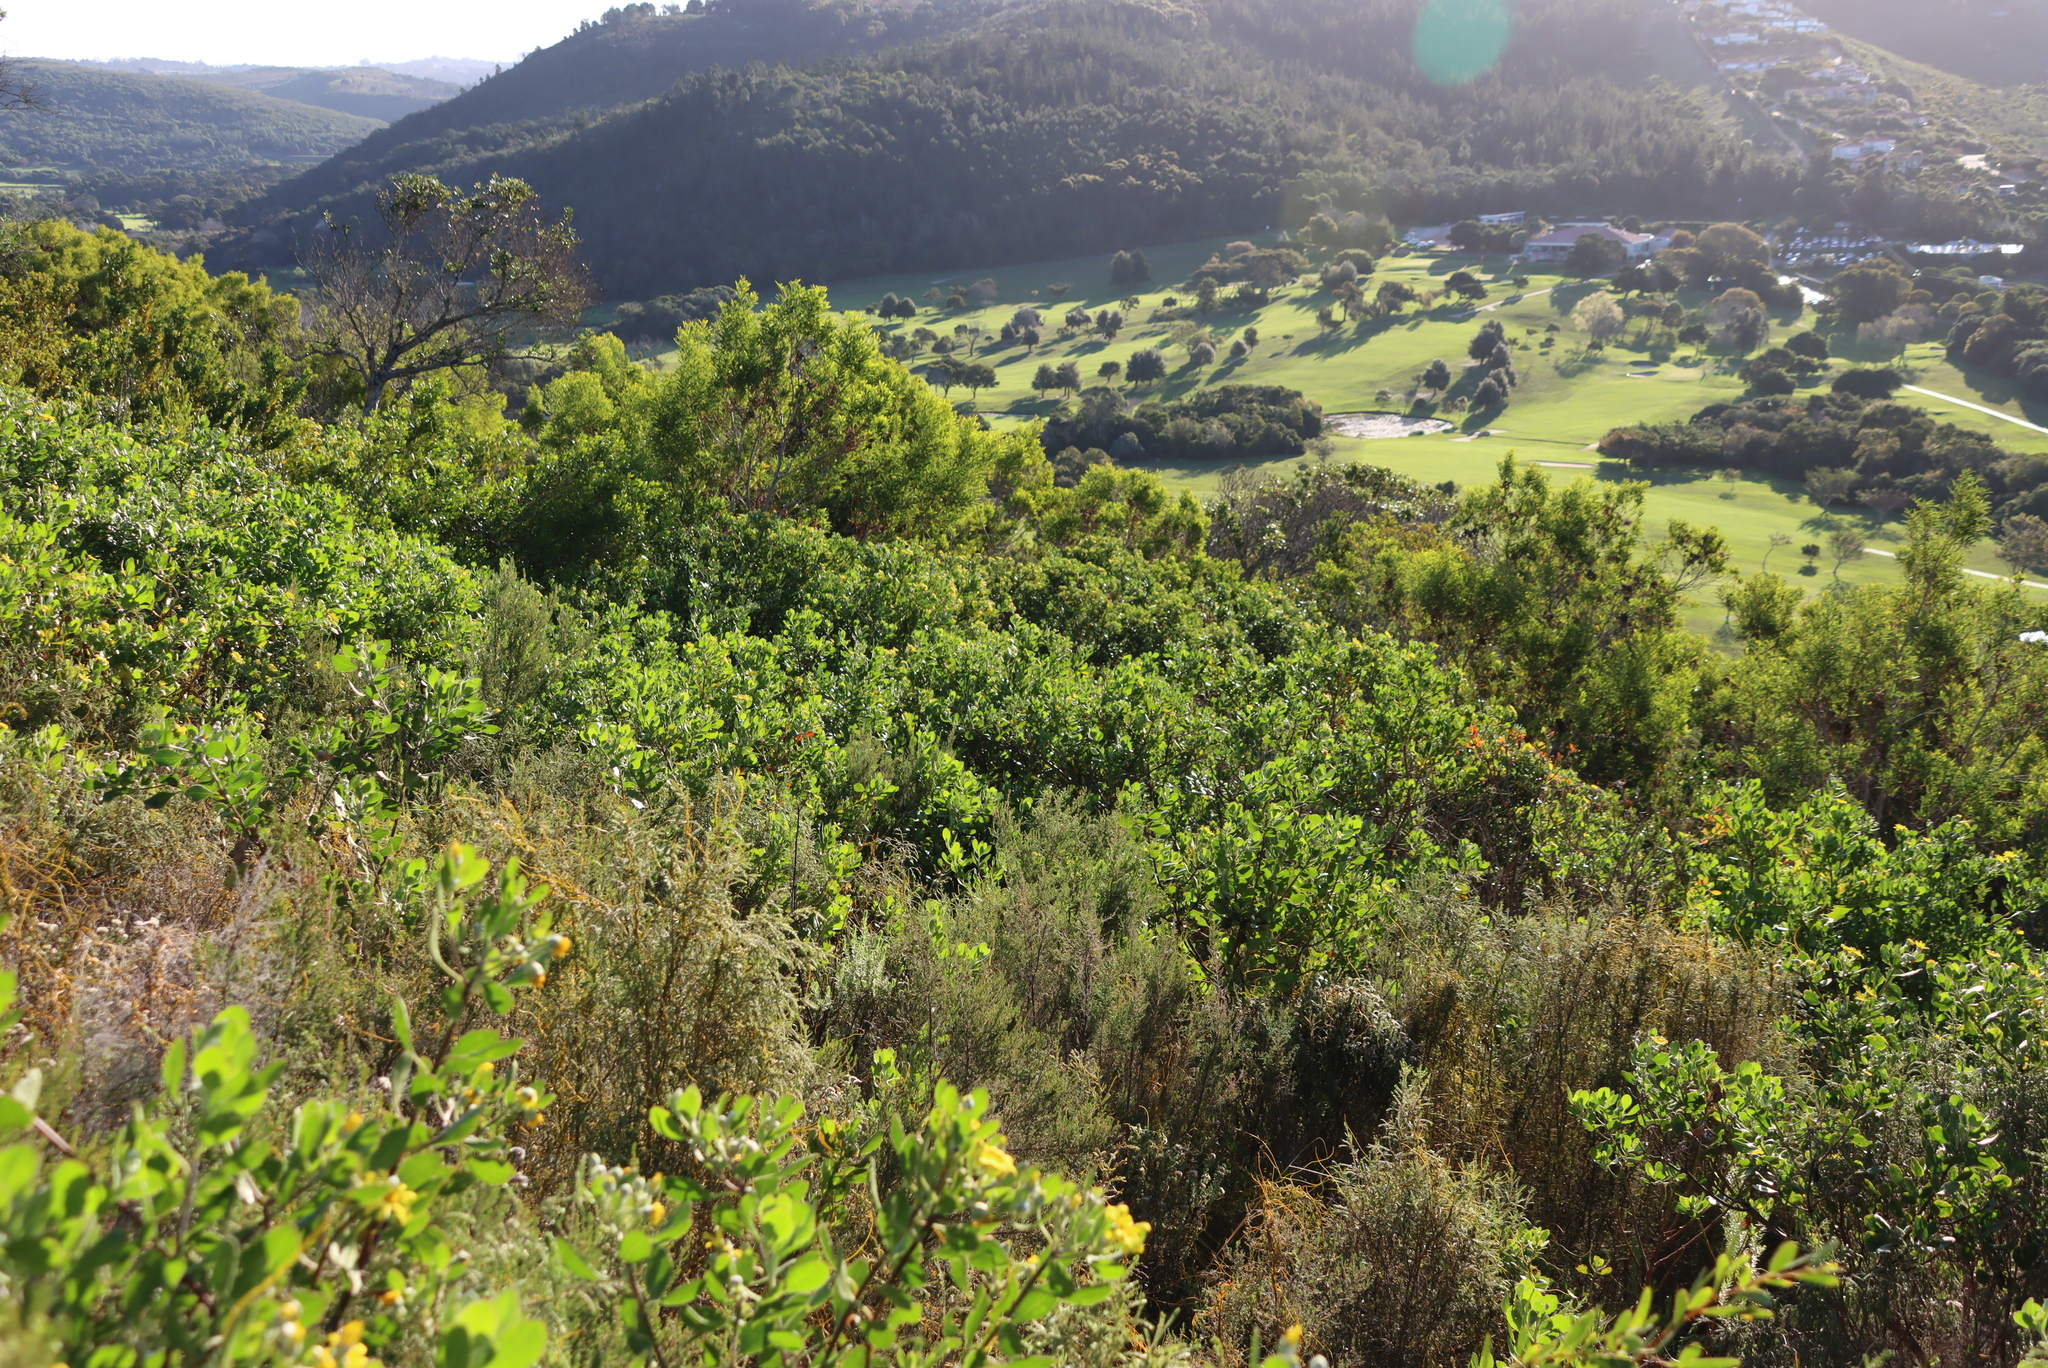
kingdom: Plantae
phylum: Tracheophyta
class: Magnoliopsida
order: Asterales
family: Asteraceae
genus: Osteospermum
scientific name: Osteospermum moniliferum
